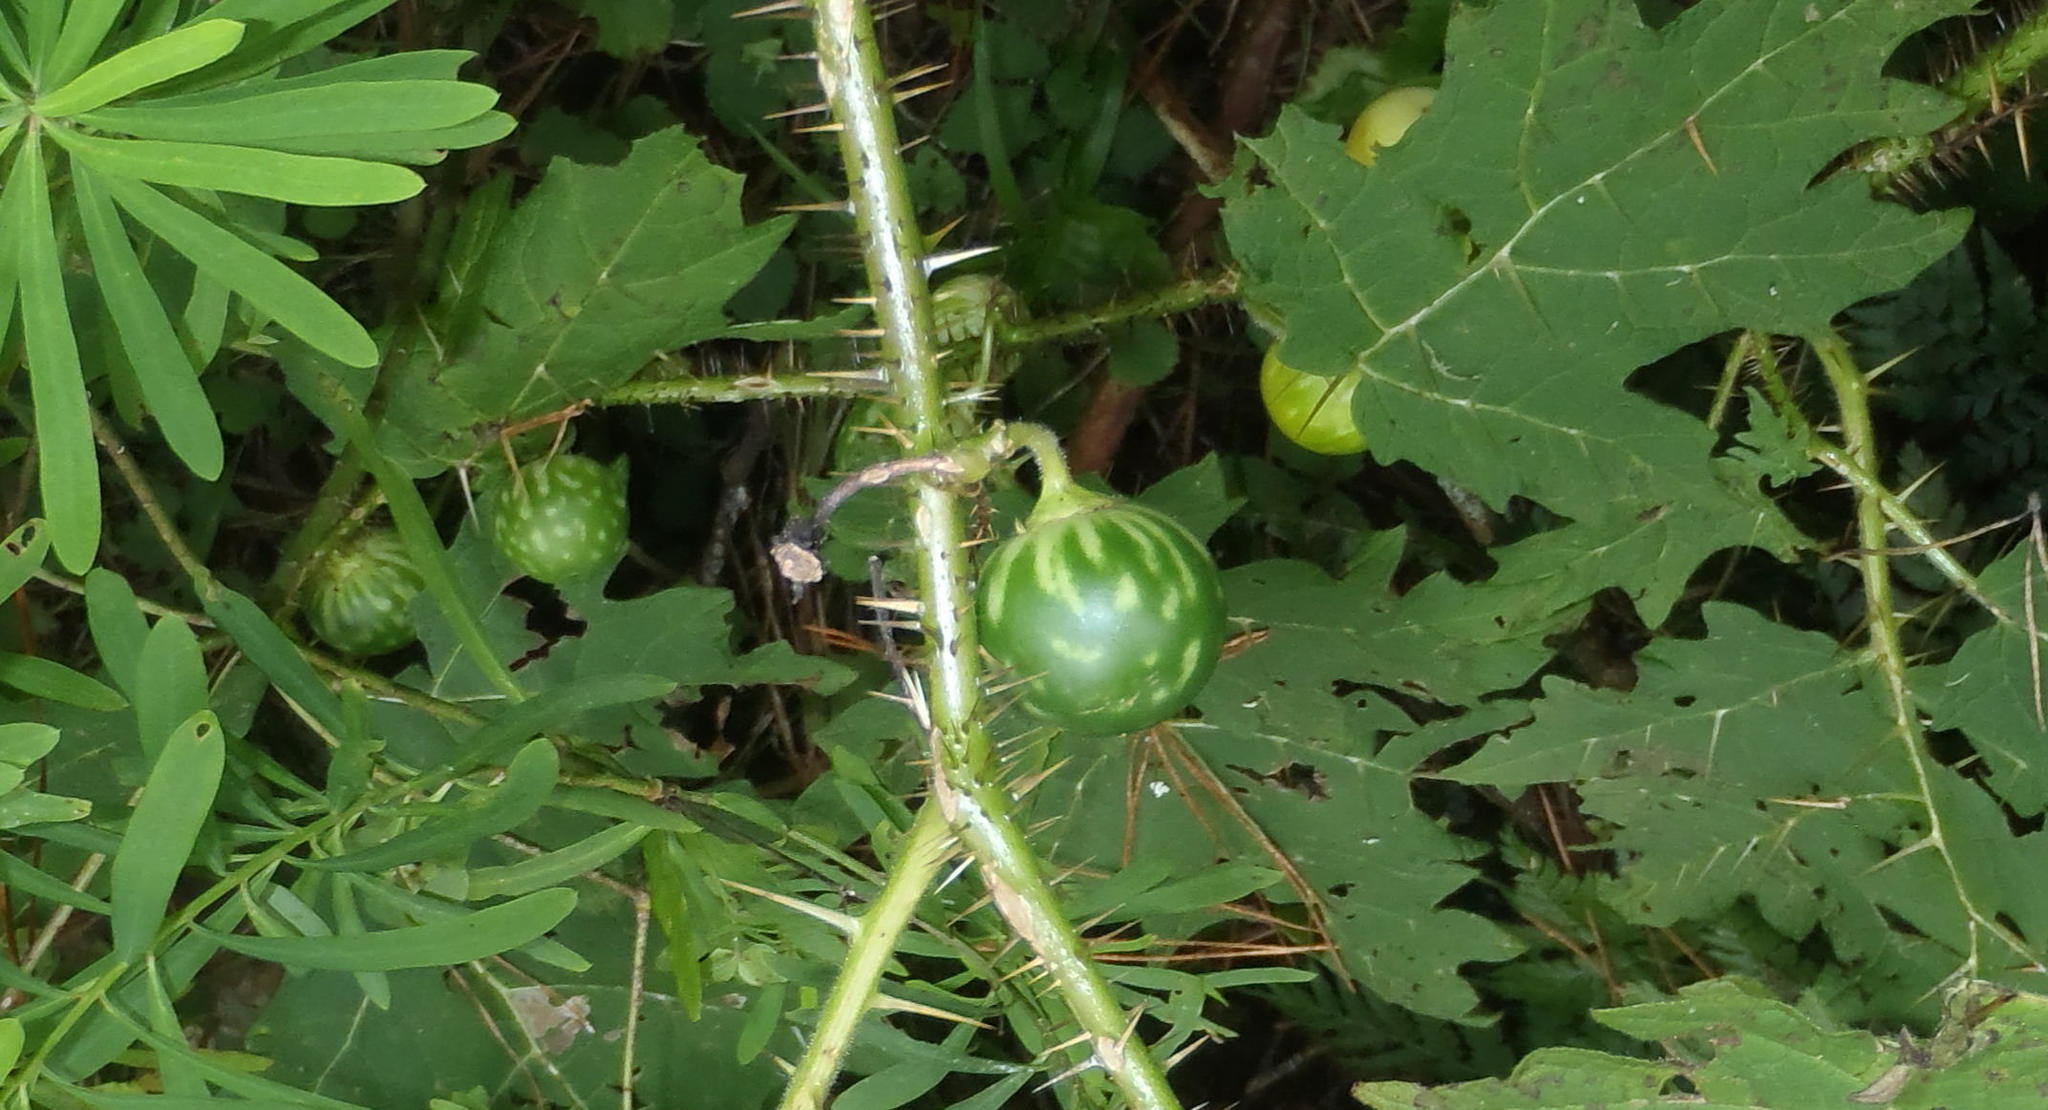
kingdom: Plantae
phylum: Tracheophyta
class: Magnoliopsida
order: Solanales
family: Solanaceae
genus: Solanum
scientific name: Solanum aculeatissimum
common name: Dutch eggplant
